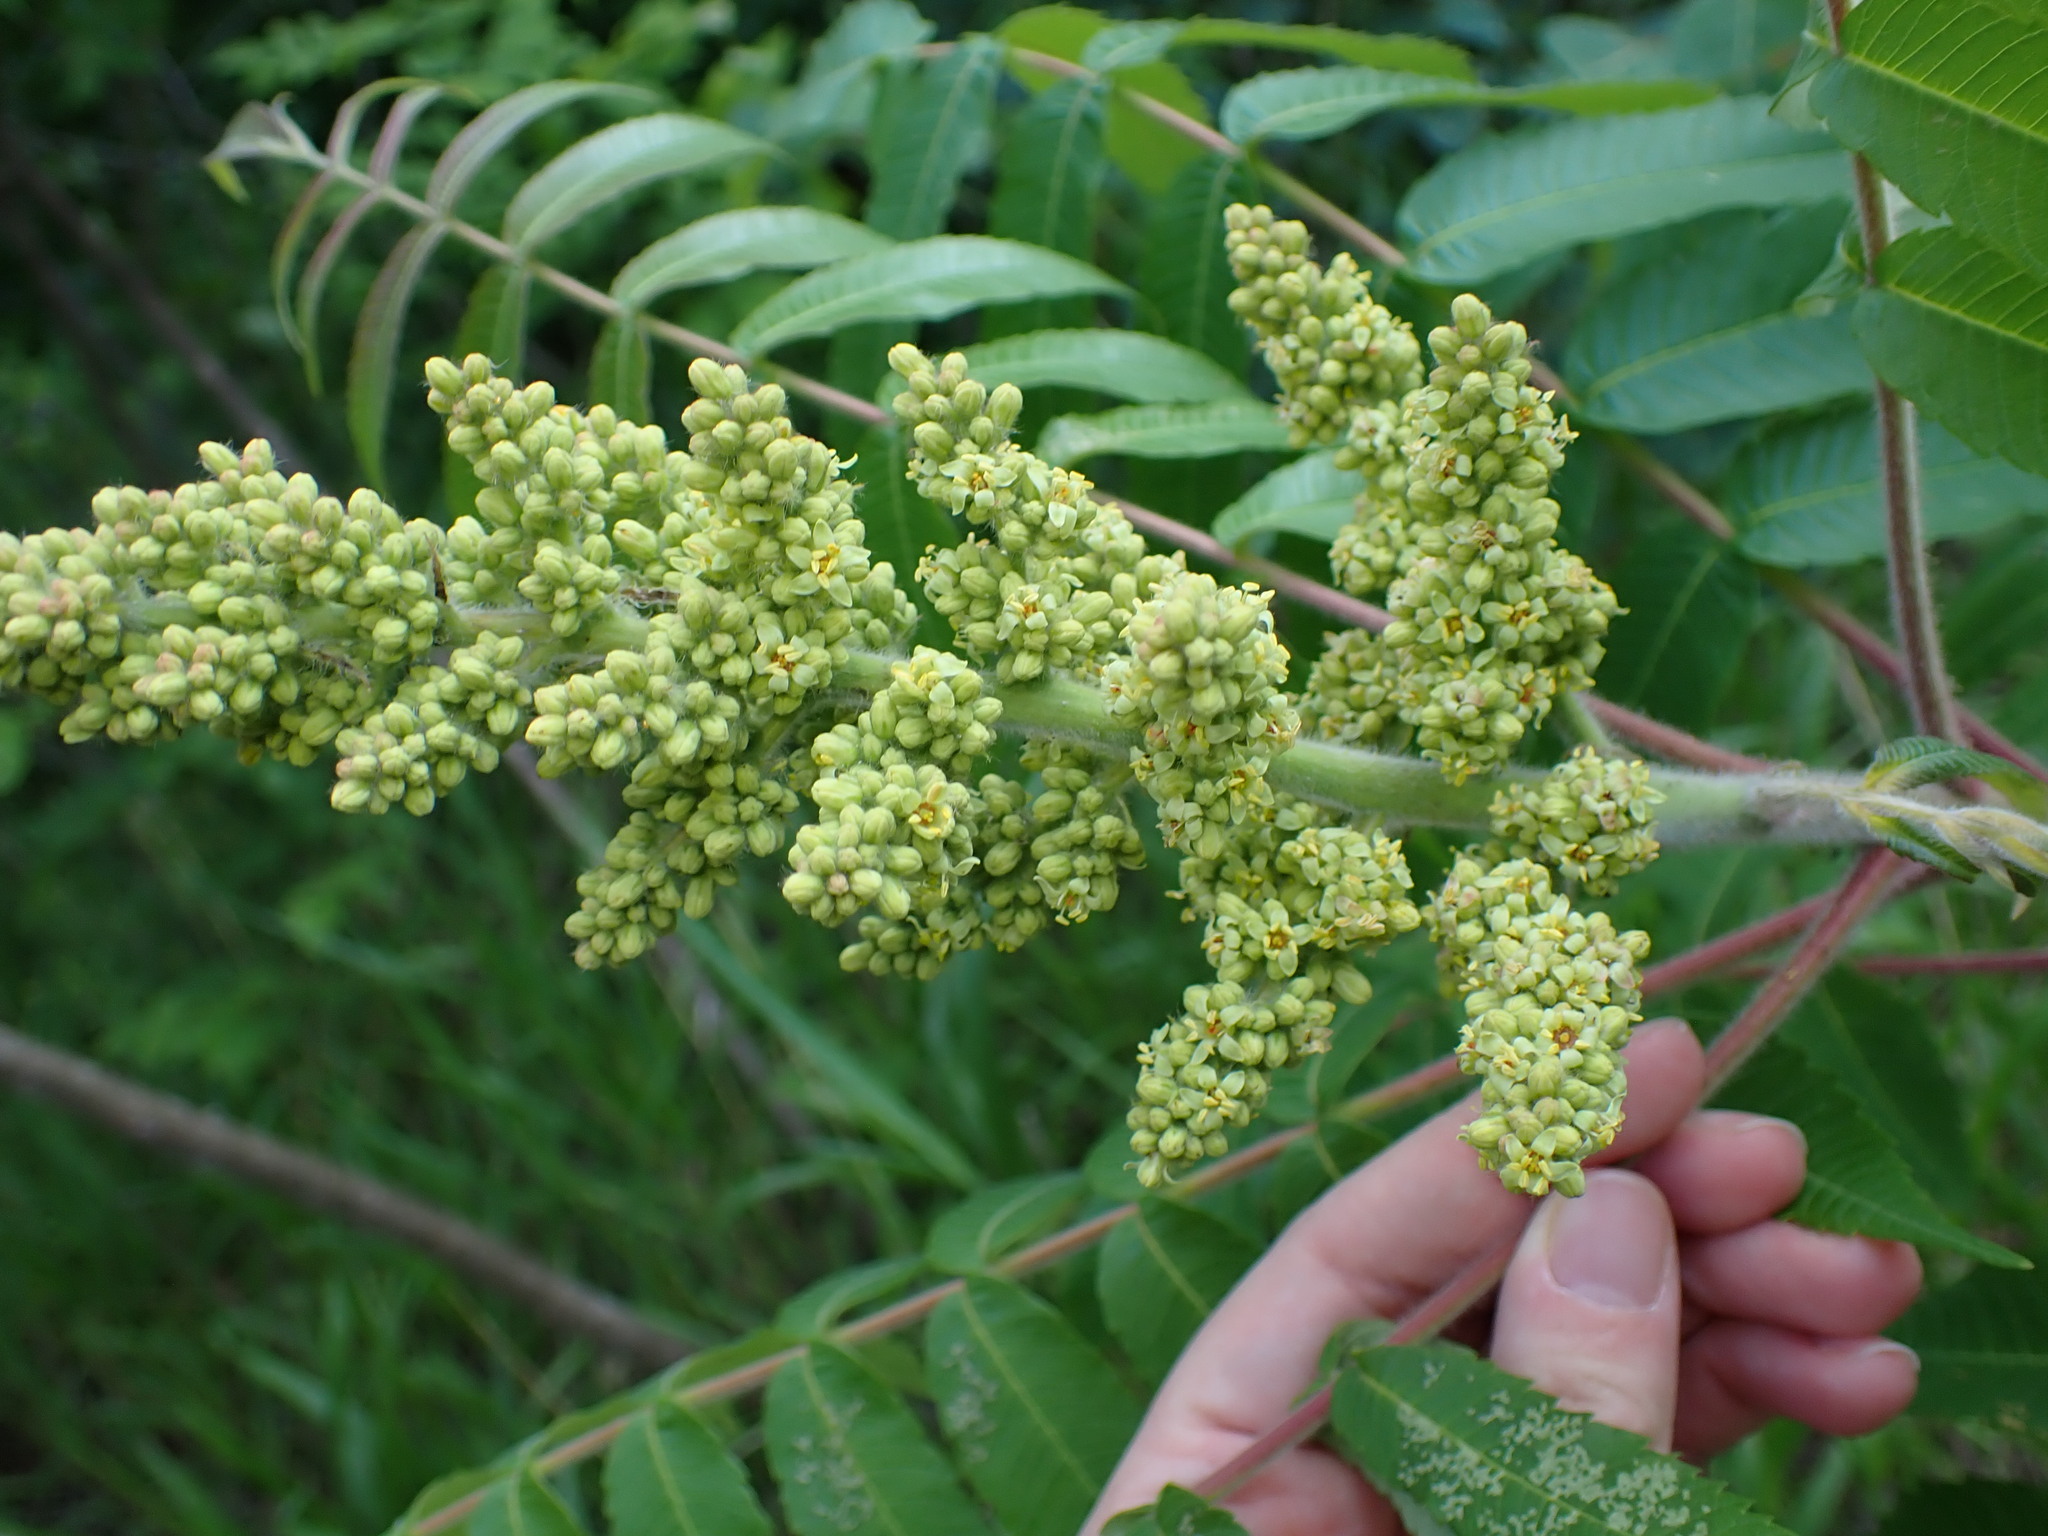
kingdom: Plantae
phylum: Tracheophyta
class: Magnoliopsida
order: Sapindales
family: Anacardiaceae
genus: Rhus
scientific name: Rhus typhina
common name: Staghorn sumac
